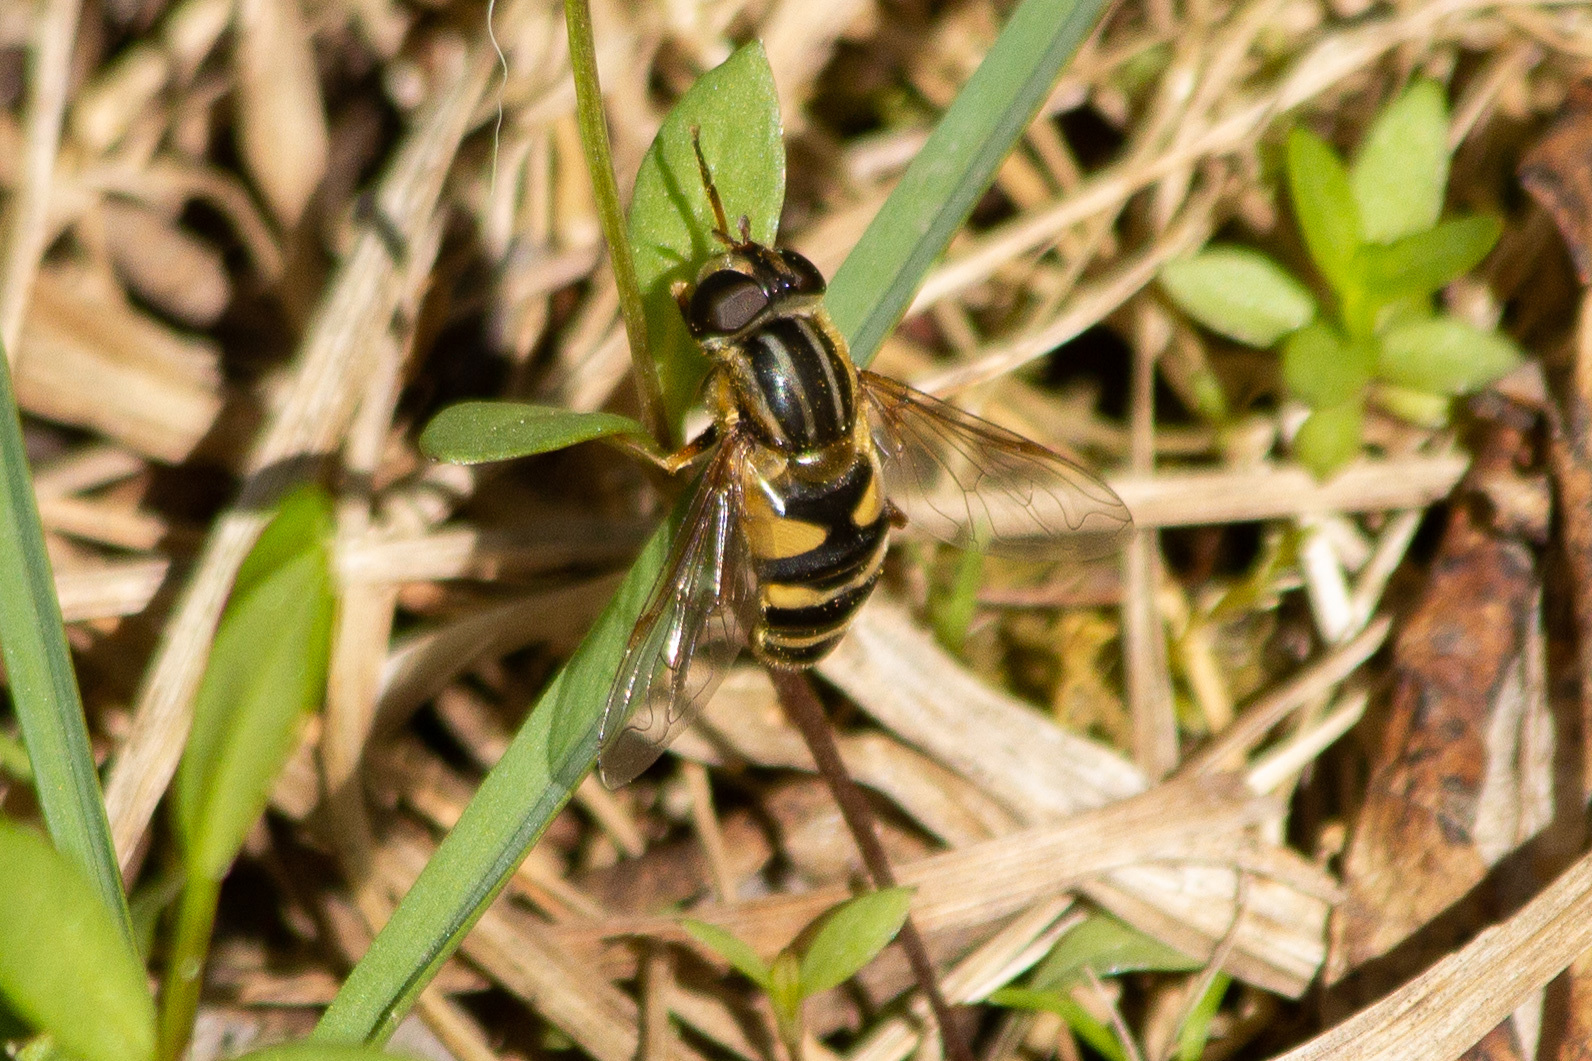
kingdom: Animalia
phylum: Arthropoda
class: Insecta
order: Diptera
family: Syrphidae
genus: Helophilus
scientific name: Helophilus fasciatus
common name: Narrow-headed marsh fly
